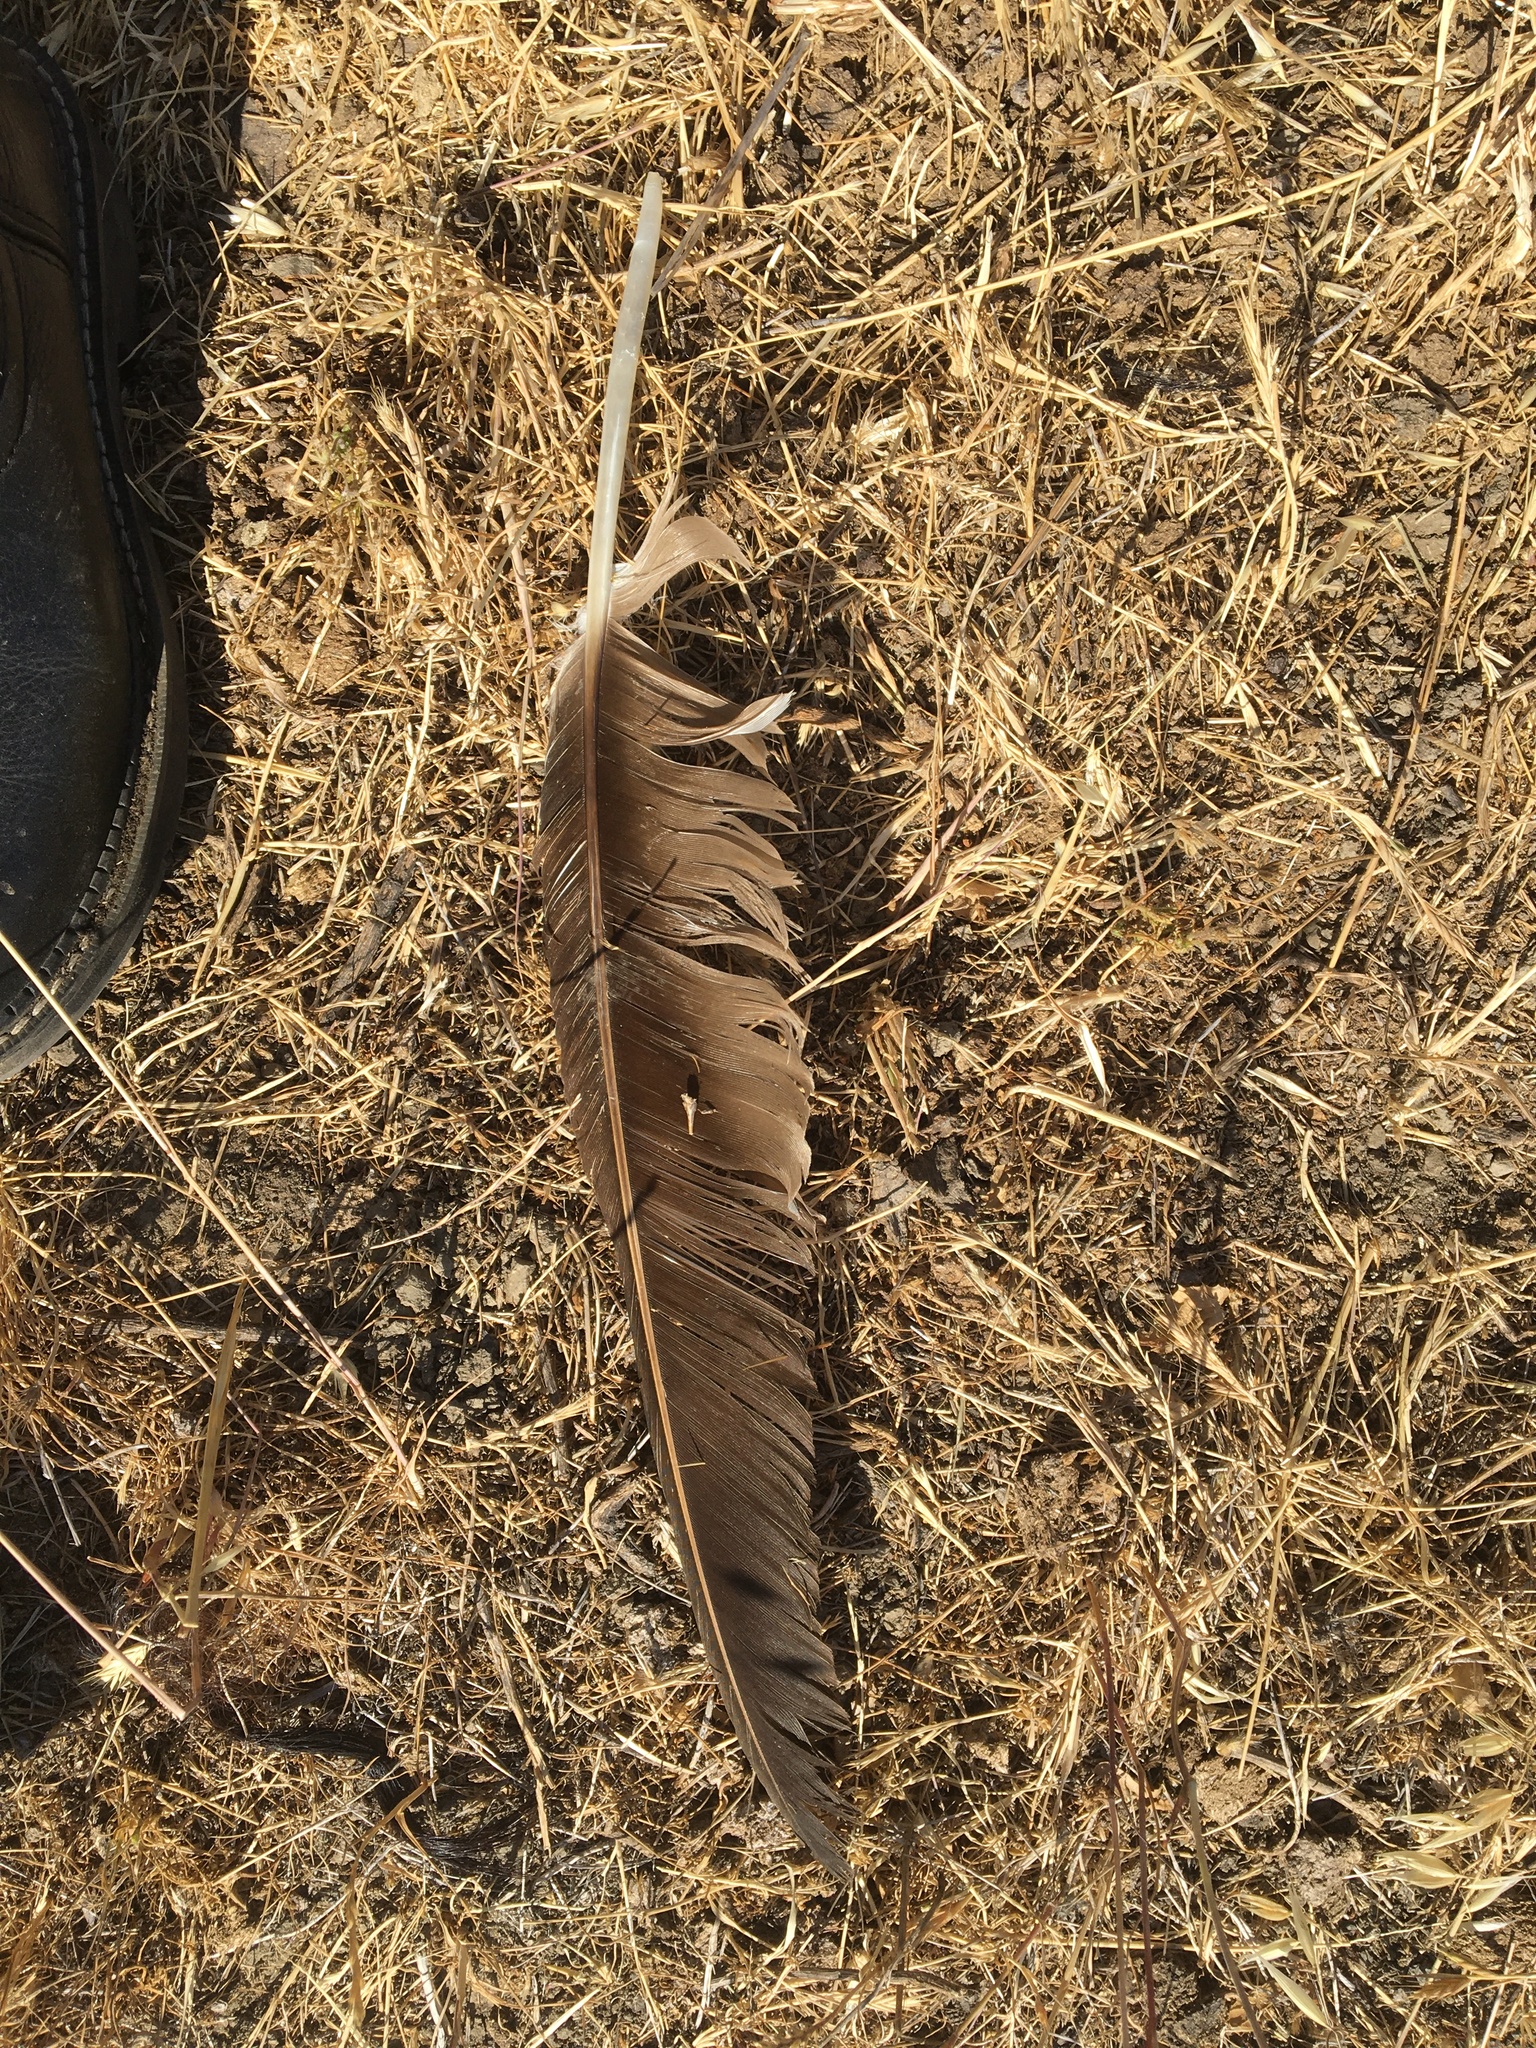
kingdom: Animalia
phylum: Chordata
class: Aves
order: Accipitriformes
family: Cathartidae
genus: Cathartes
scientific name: Cathartes aura
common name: Turkey vulture
